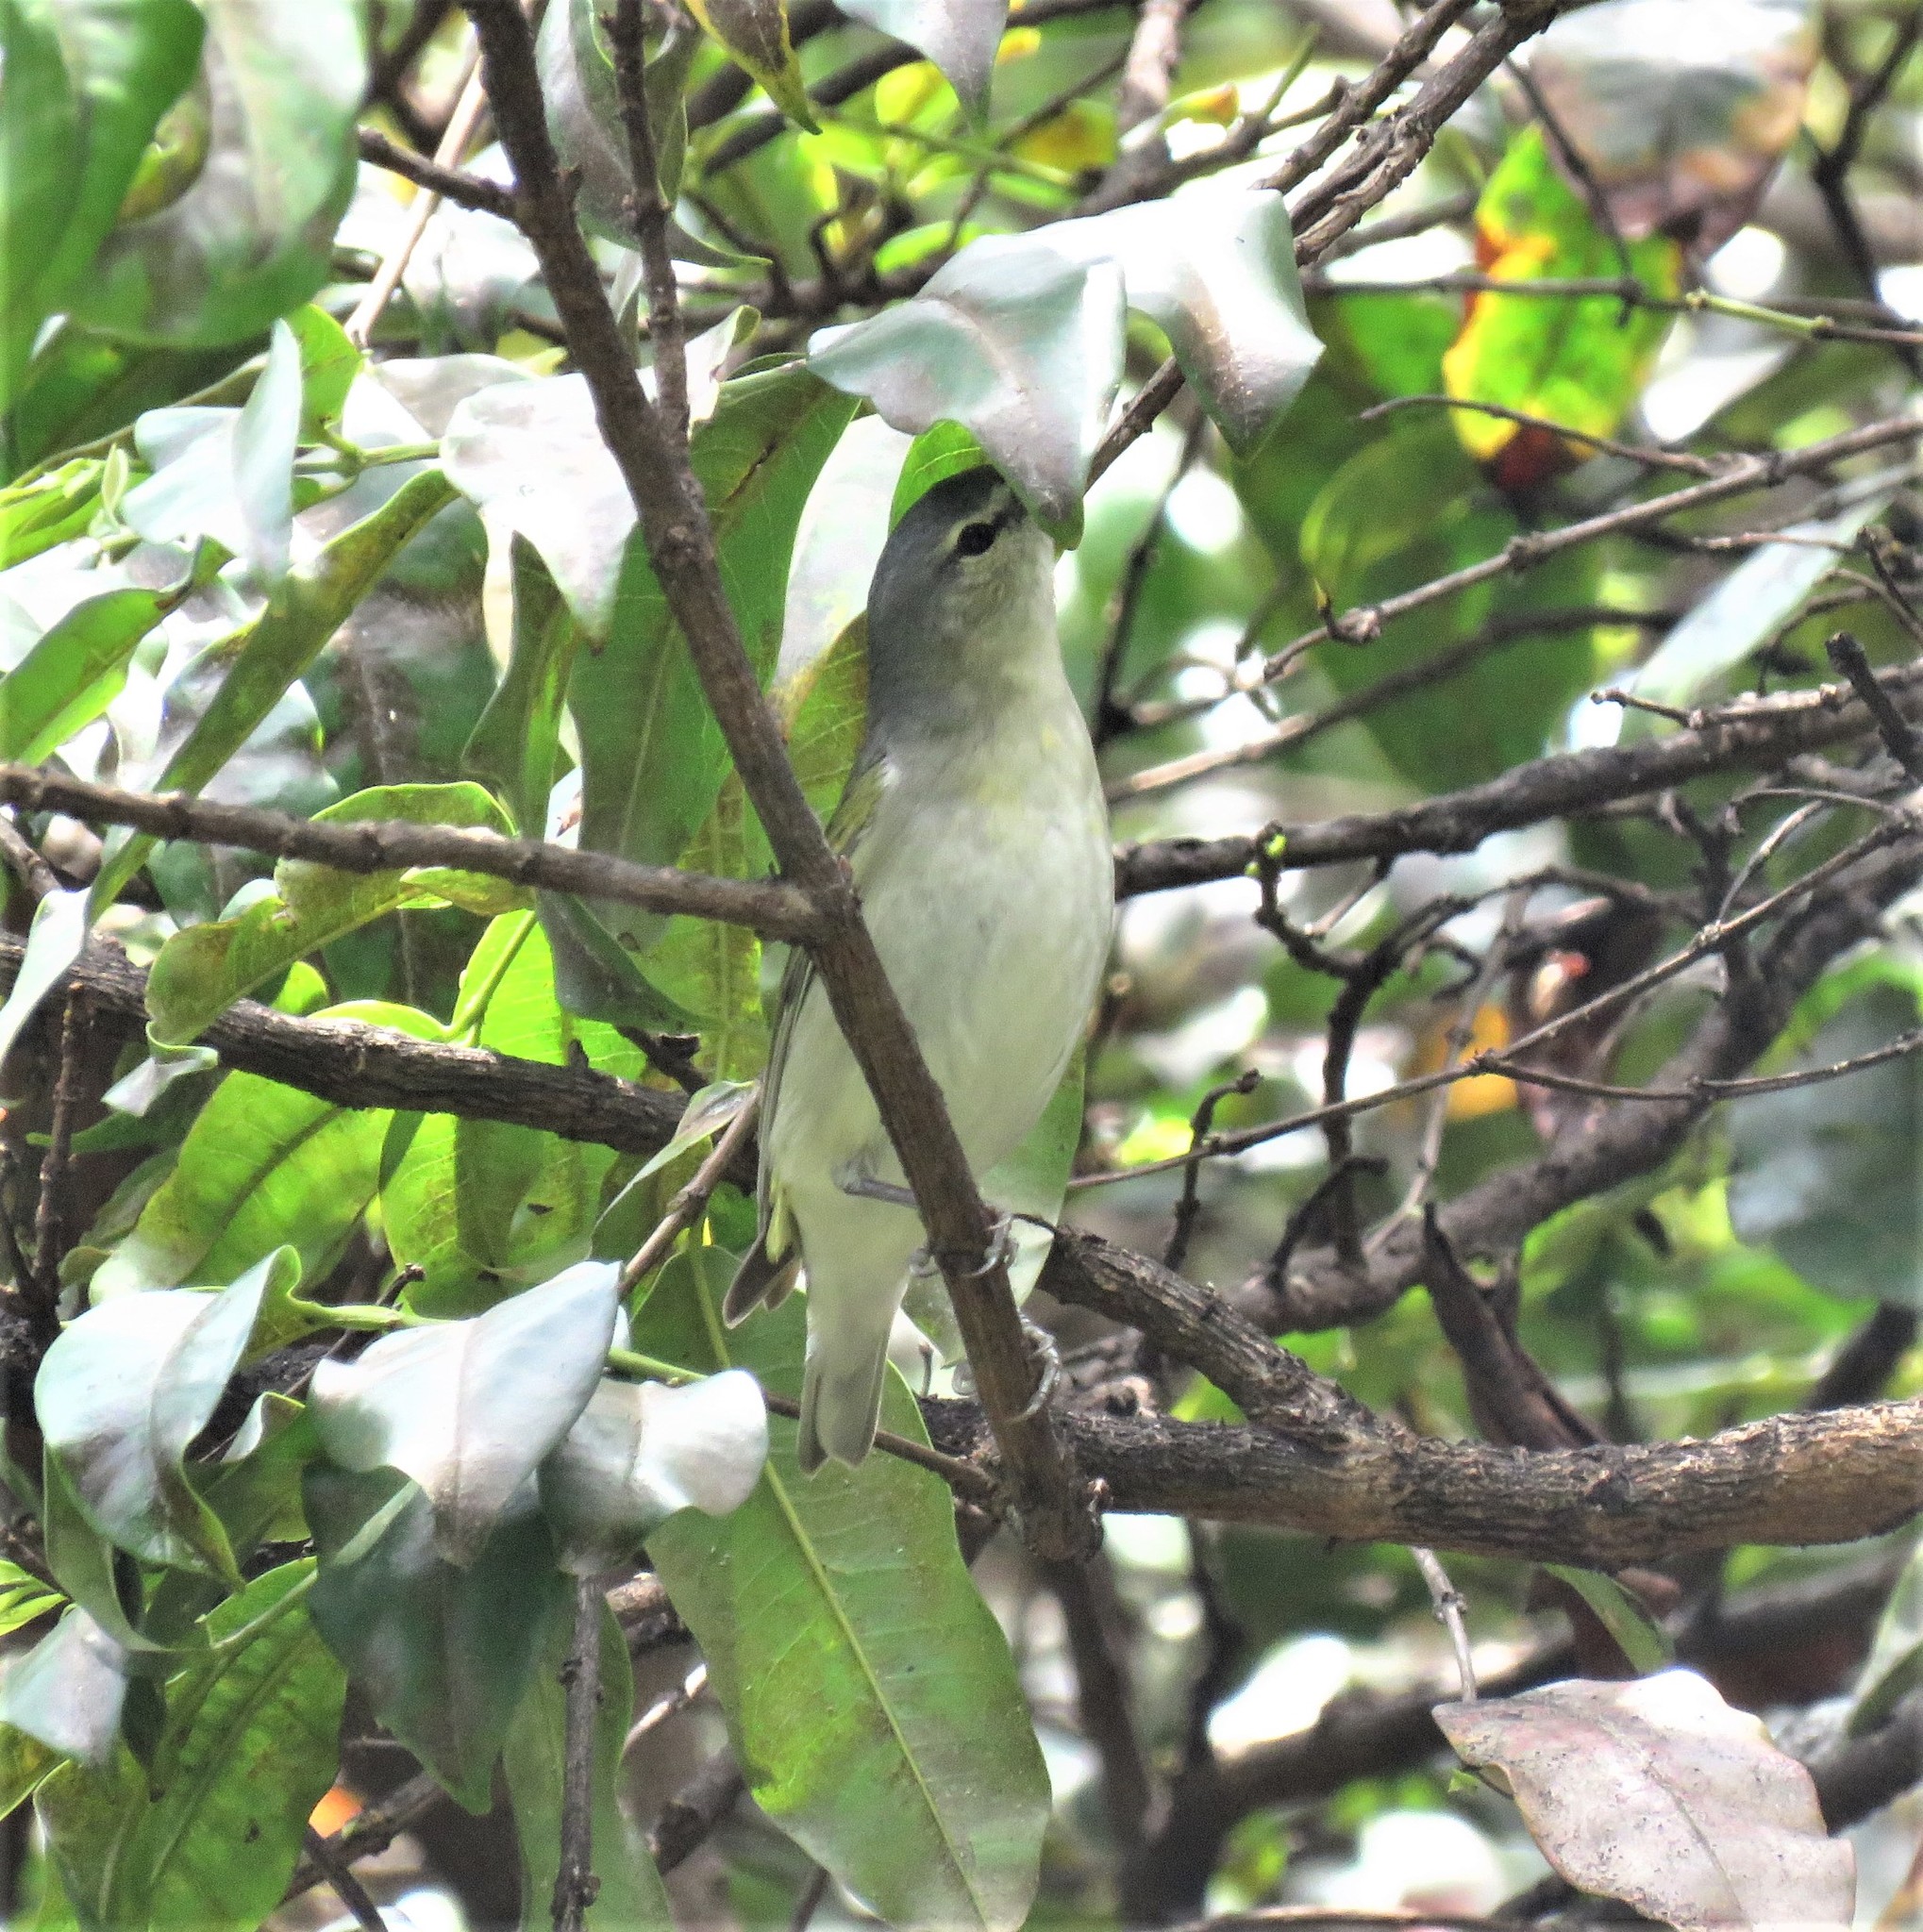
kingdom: Animalia
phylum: Chordata
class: Aves
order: Passeriformes
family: Parulidae
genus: Leiothlypis
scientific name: Leiothlypis peregrina
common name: Tennessee warbler
